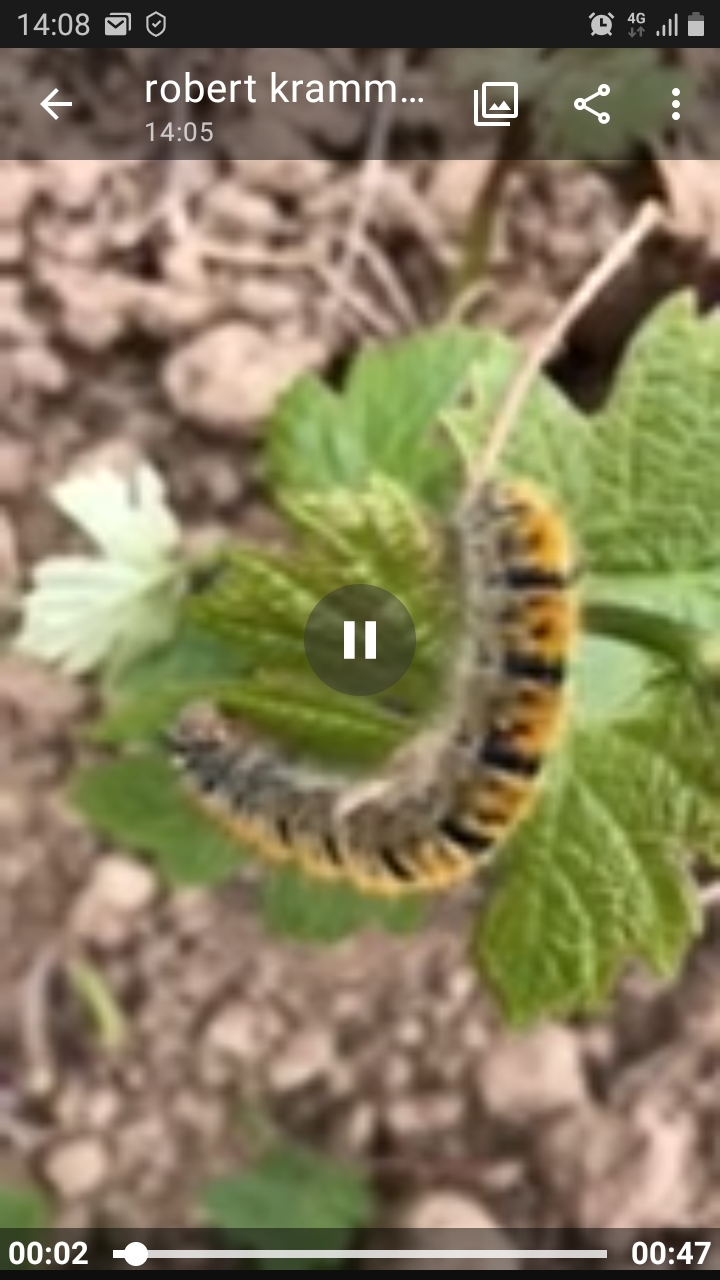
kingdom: Animalia
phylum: Arthropoda
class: Insecta
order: Lepidoptera
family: Lasiocampidae
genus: Lasiocampa
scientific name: Lasiocampa trifolii
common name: Grass eggar
